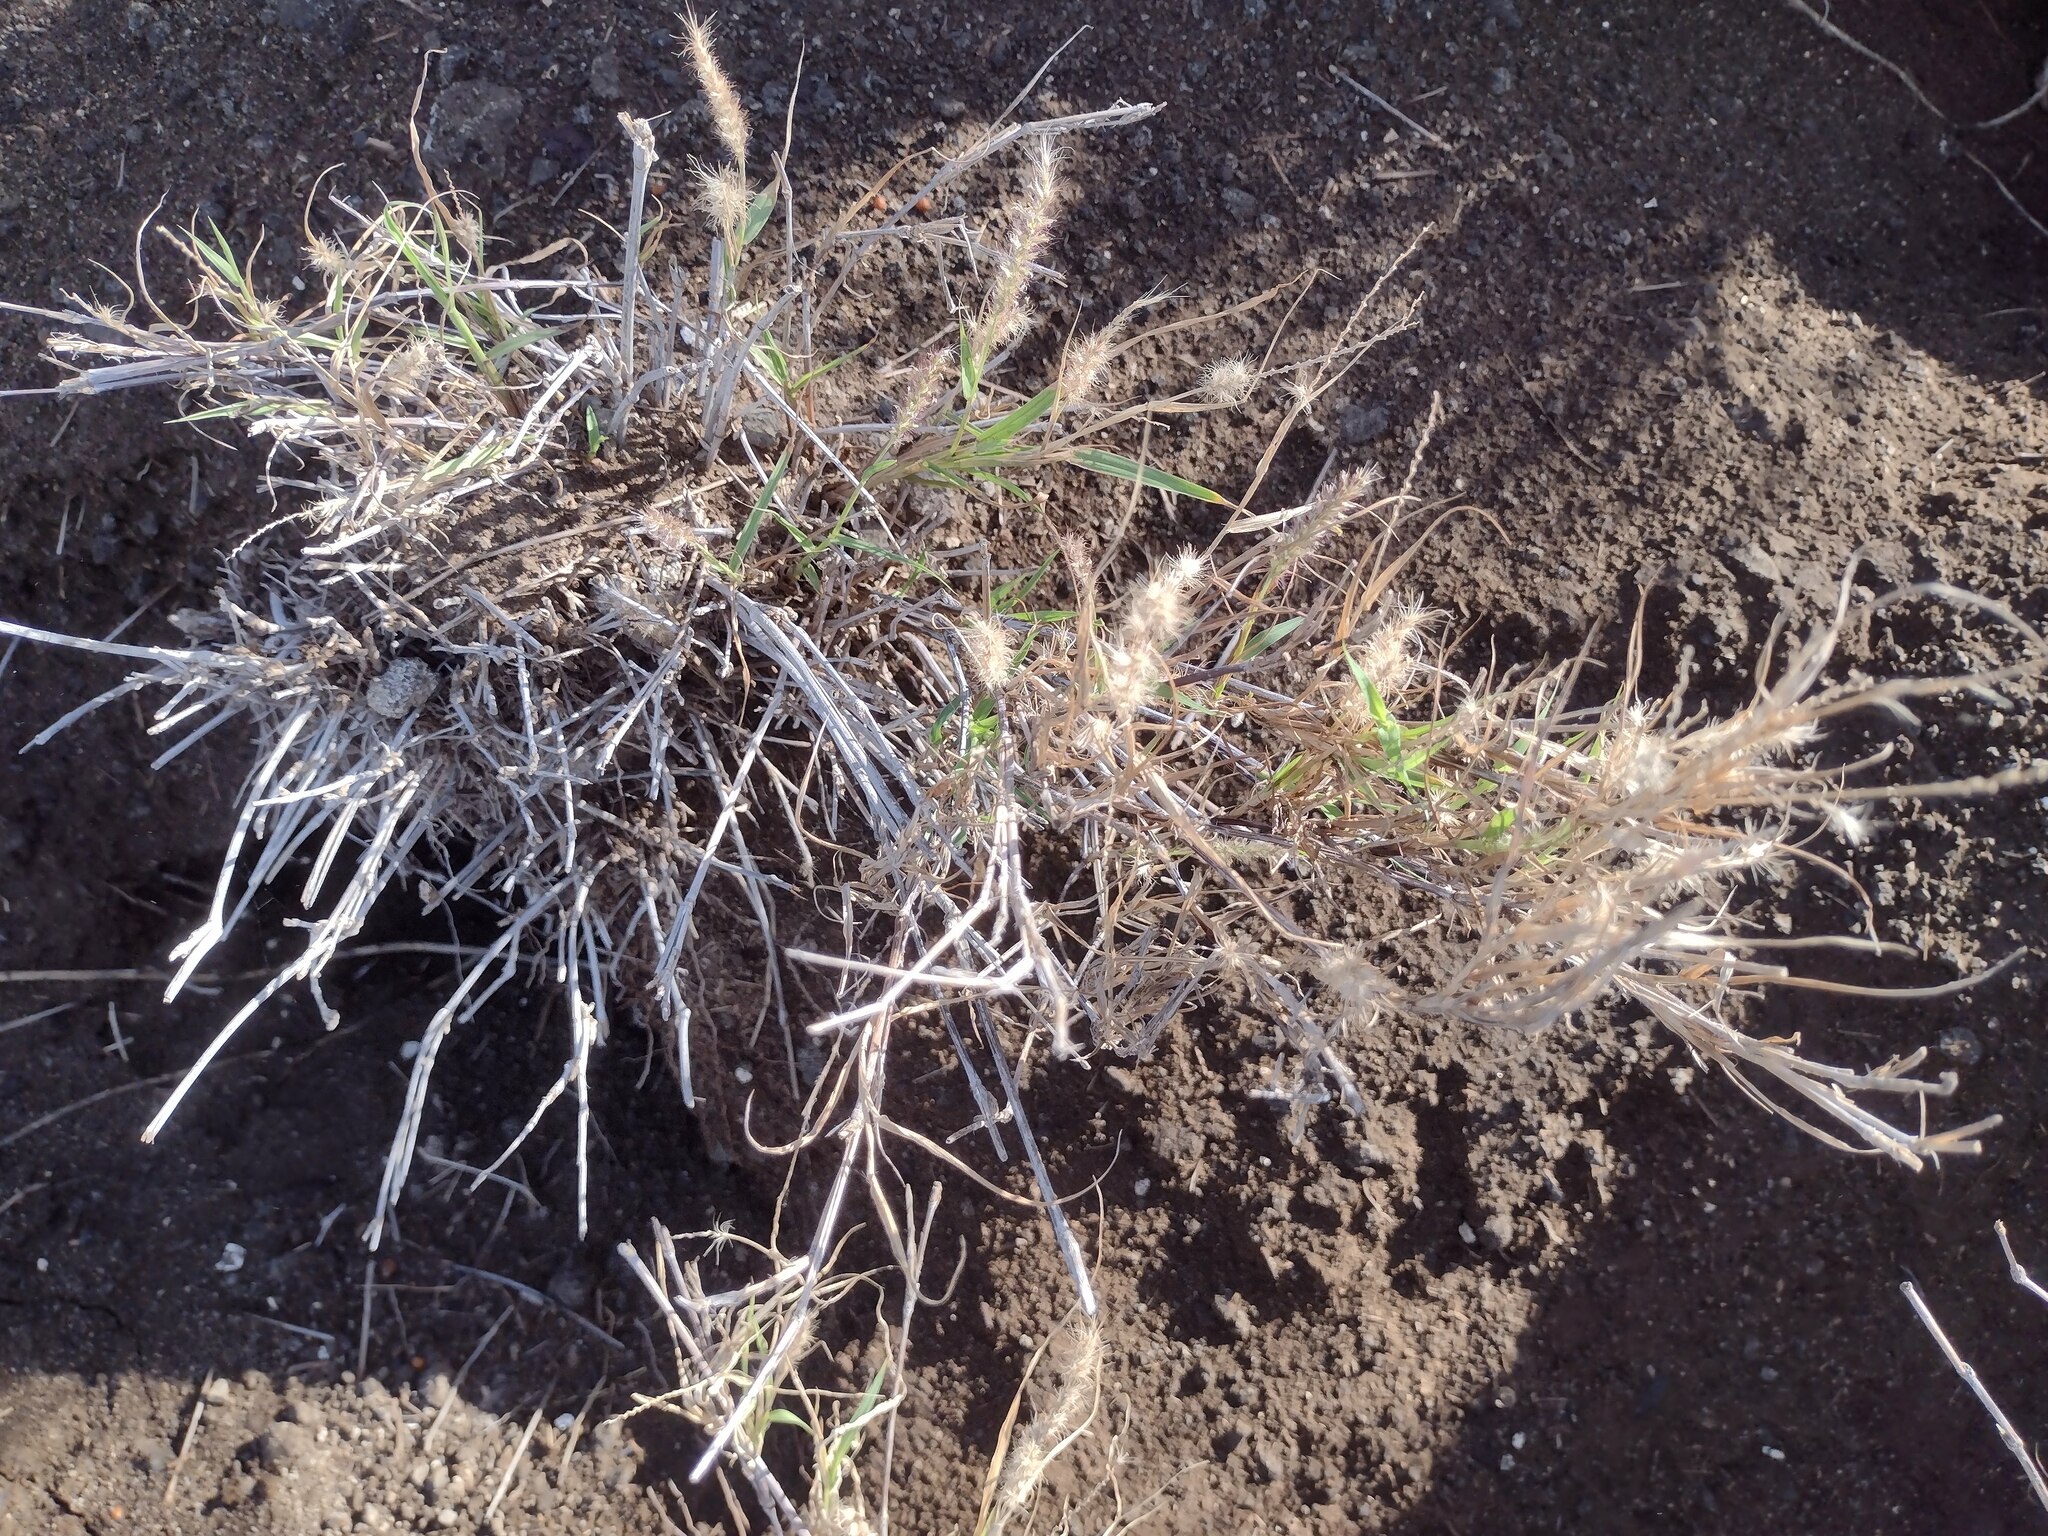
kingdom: Plantae
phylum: Tracheophyta
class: Liliopsida
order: Poales
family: Poaceae
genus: Cenchrus
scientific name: Cenchrus ciliaris
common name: Buffelgrass
